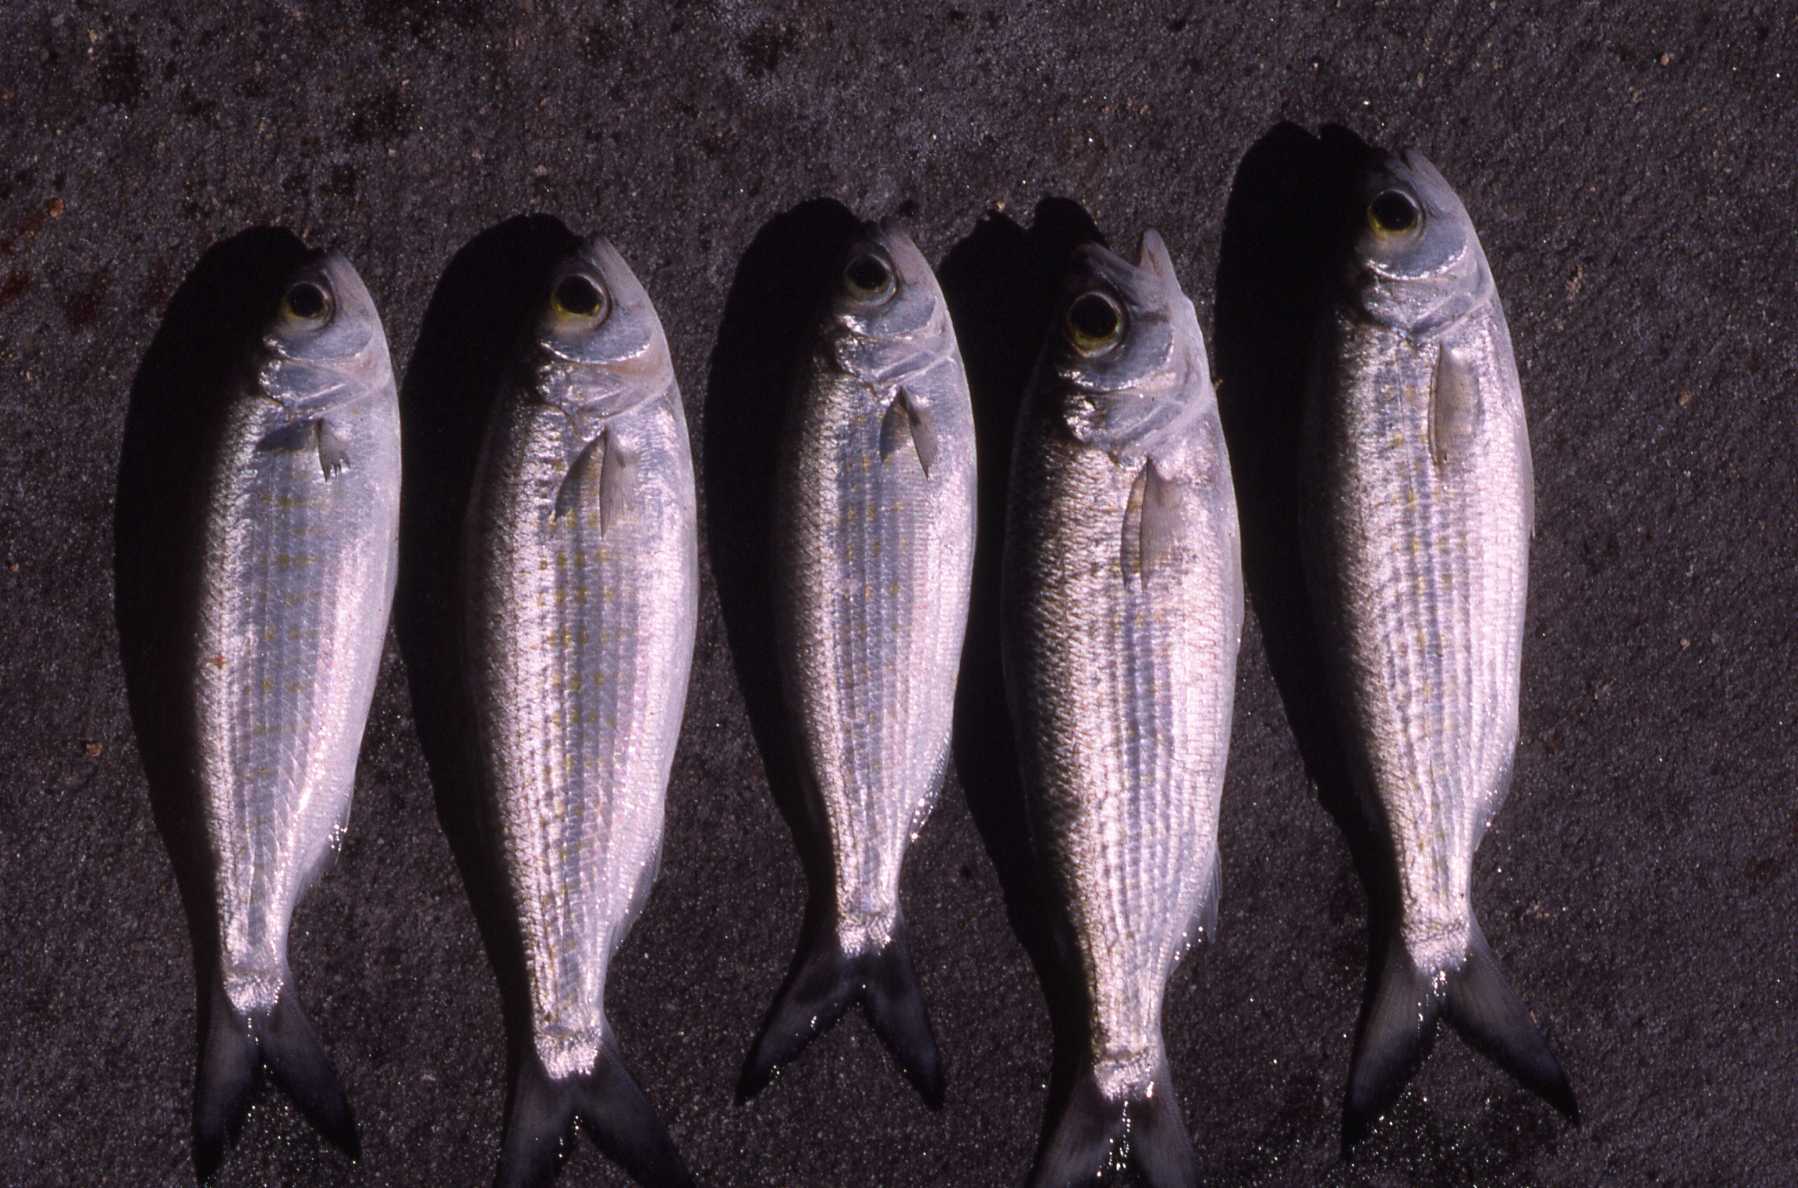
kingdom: Animalia
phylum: Chordata
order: Perciformes
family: Arripidae
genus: Arripis
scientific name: Arripis georgianus
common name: Australian herring
